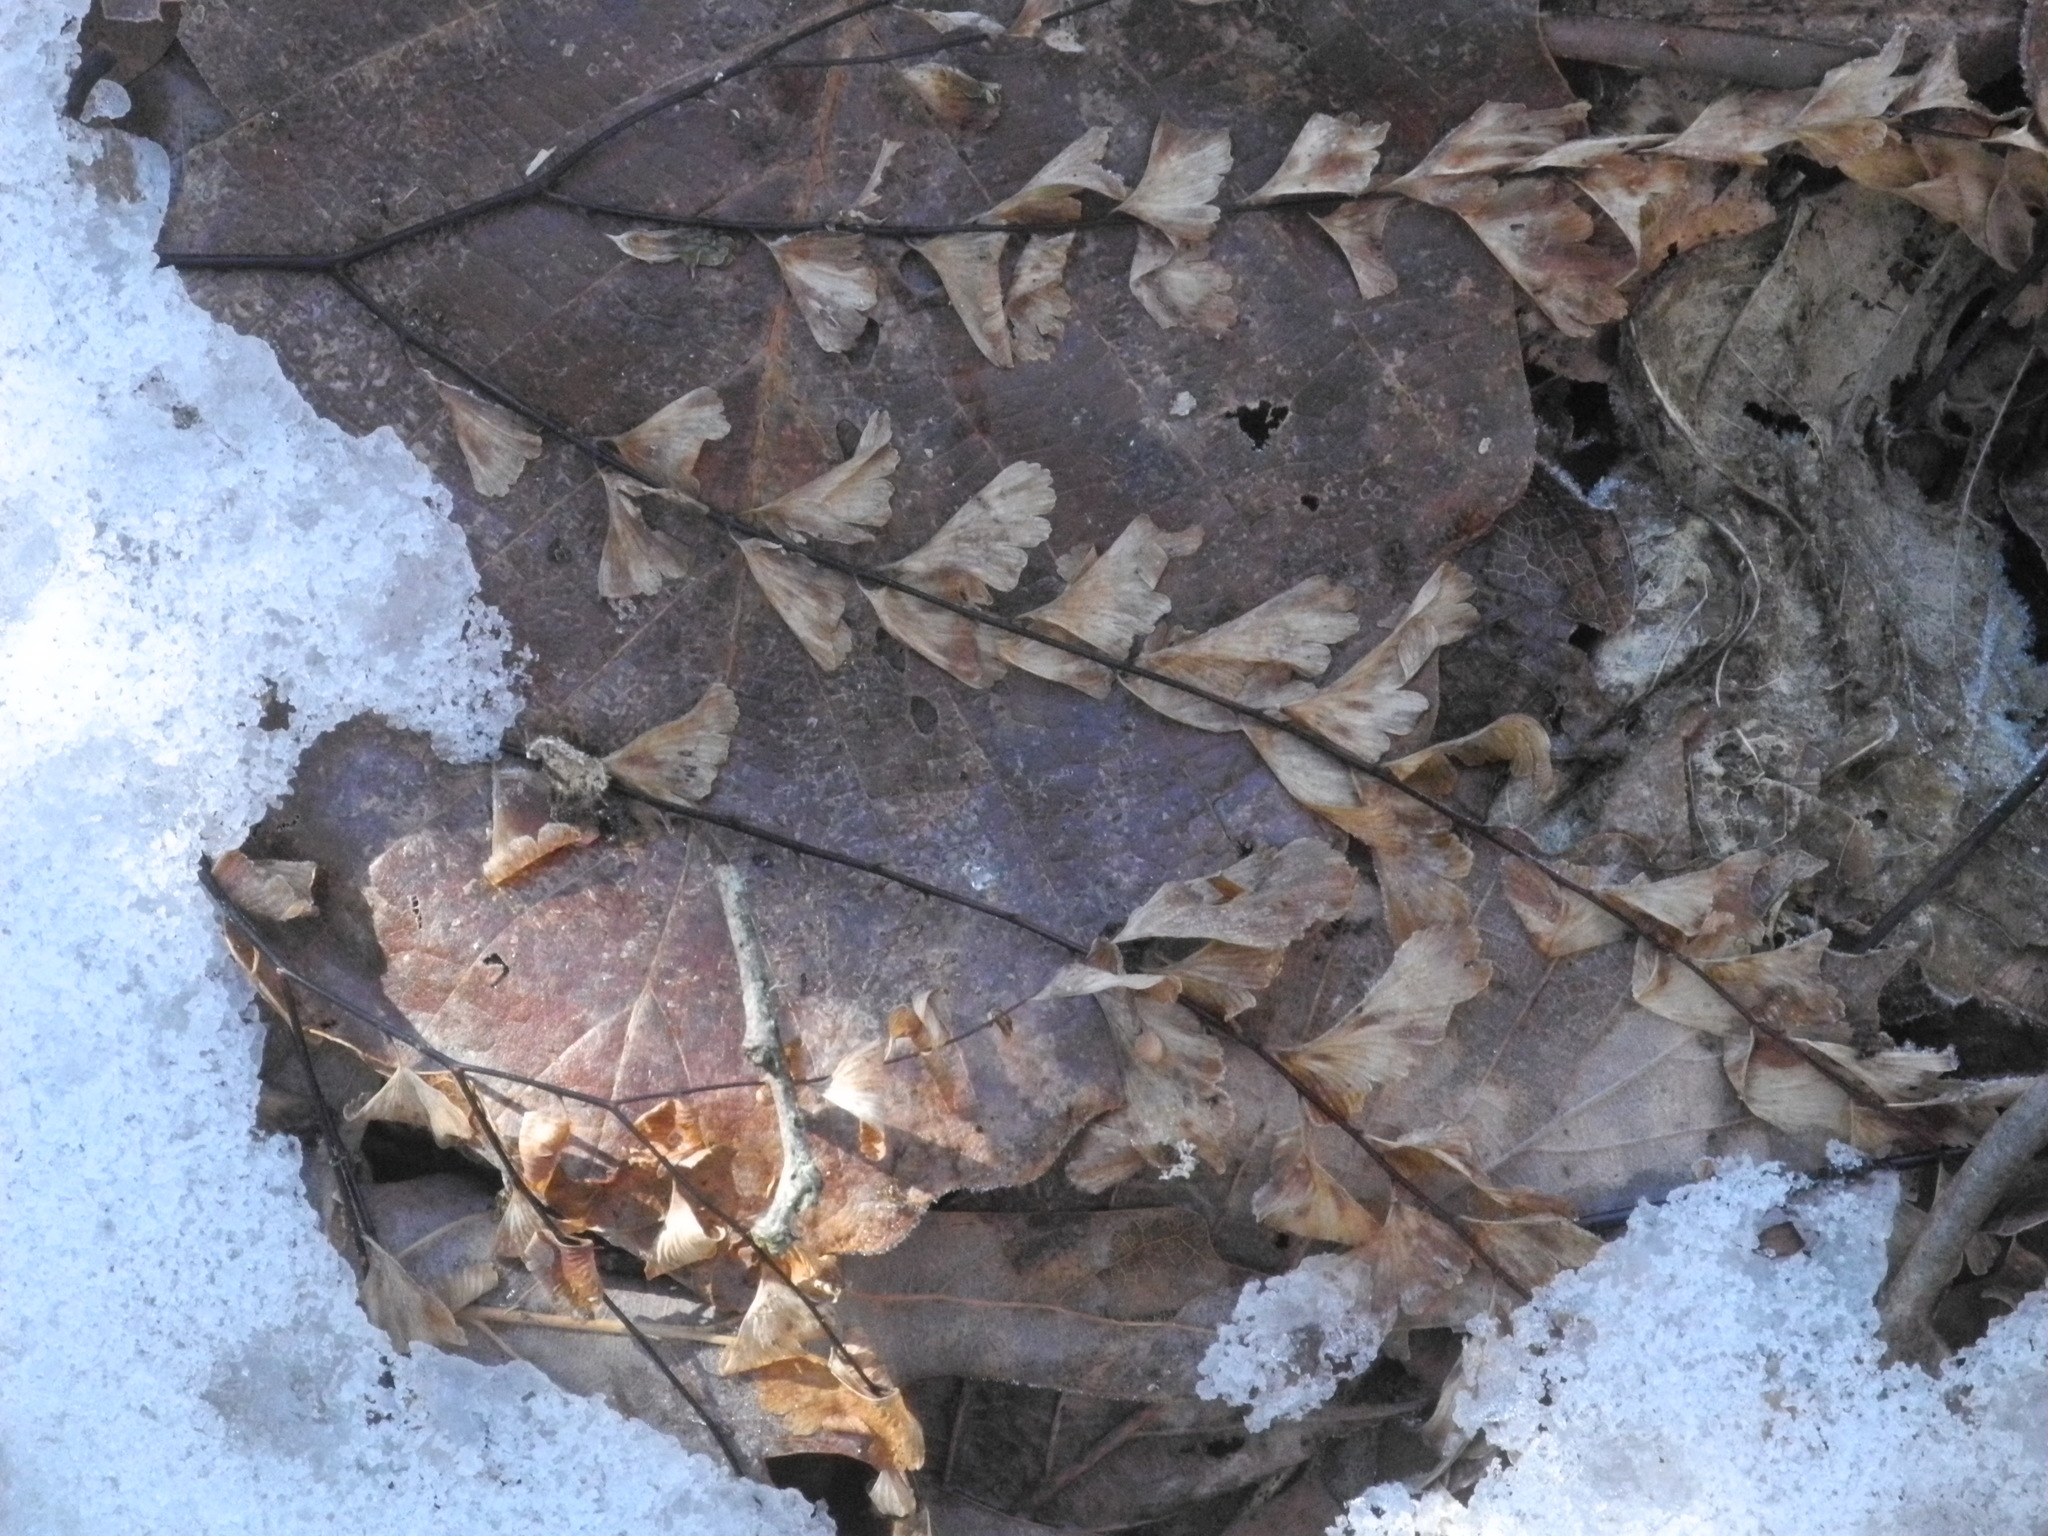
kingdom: Plantae
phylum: Tracheophyta
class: Polypodiopsida
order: Polypodiales
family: Pteridaceae
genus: Adiantum
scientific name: Adiantum pedatum
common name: Five-finger fern
